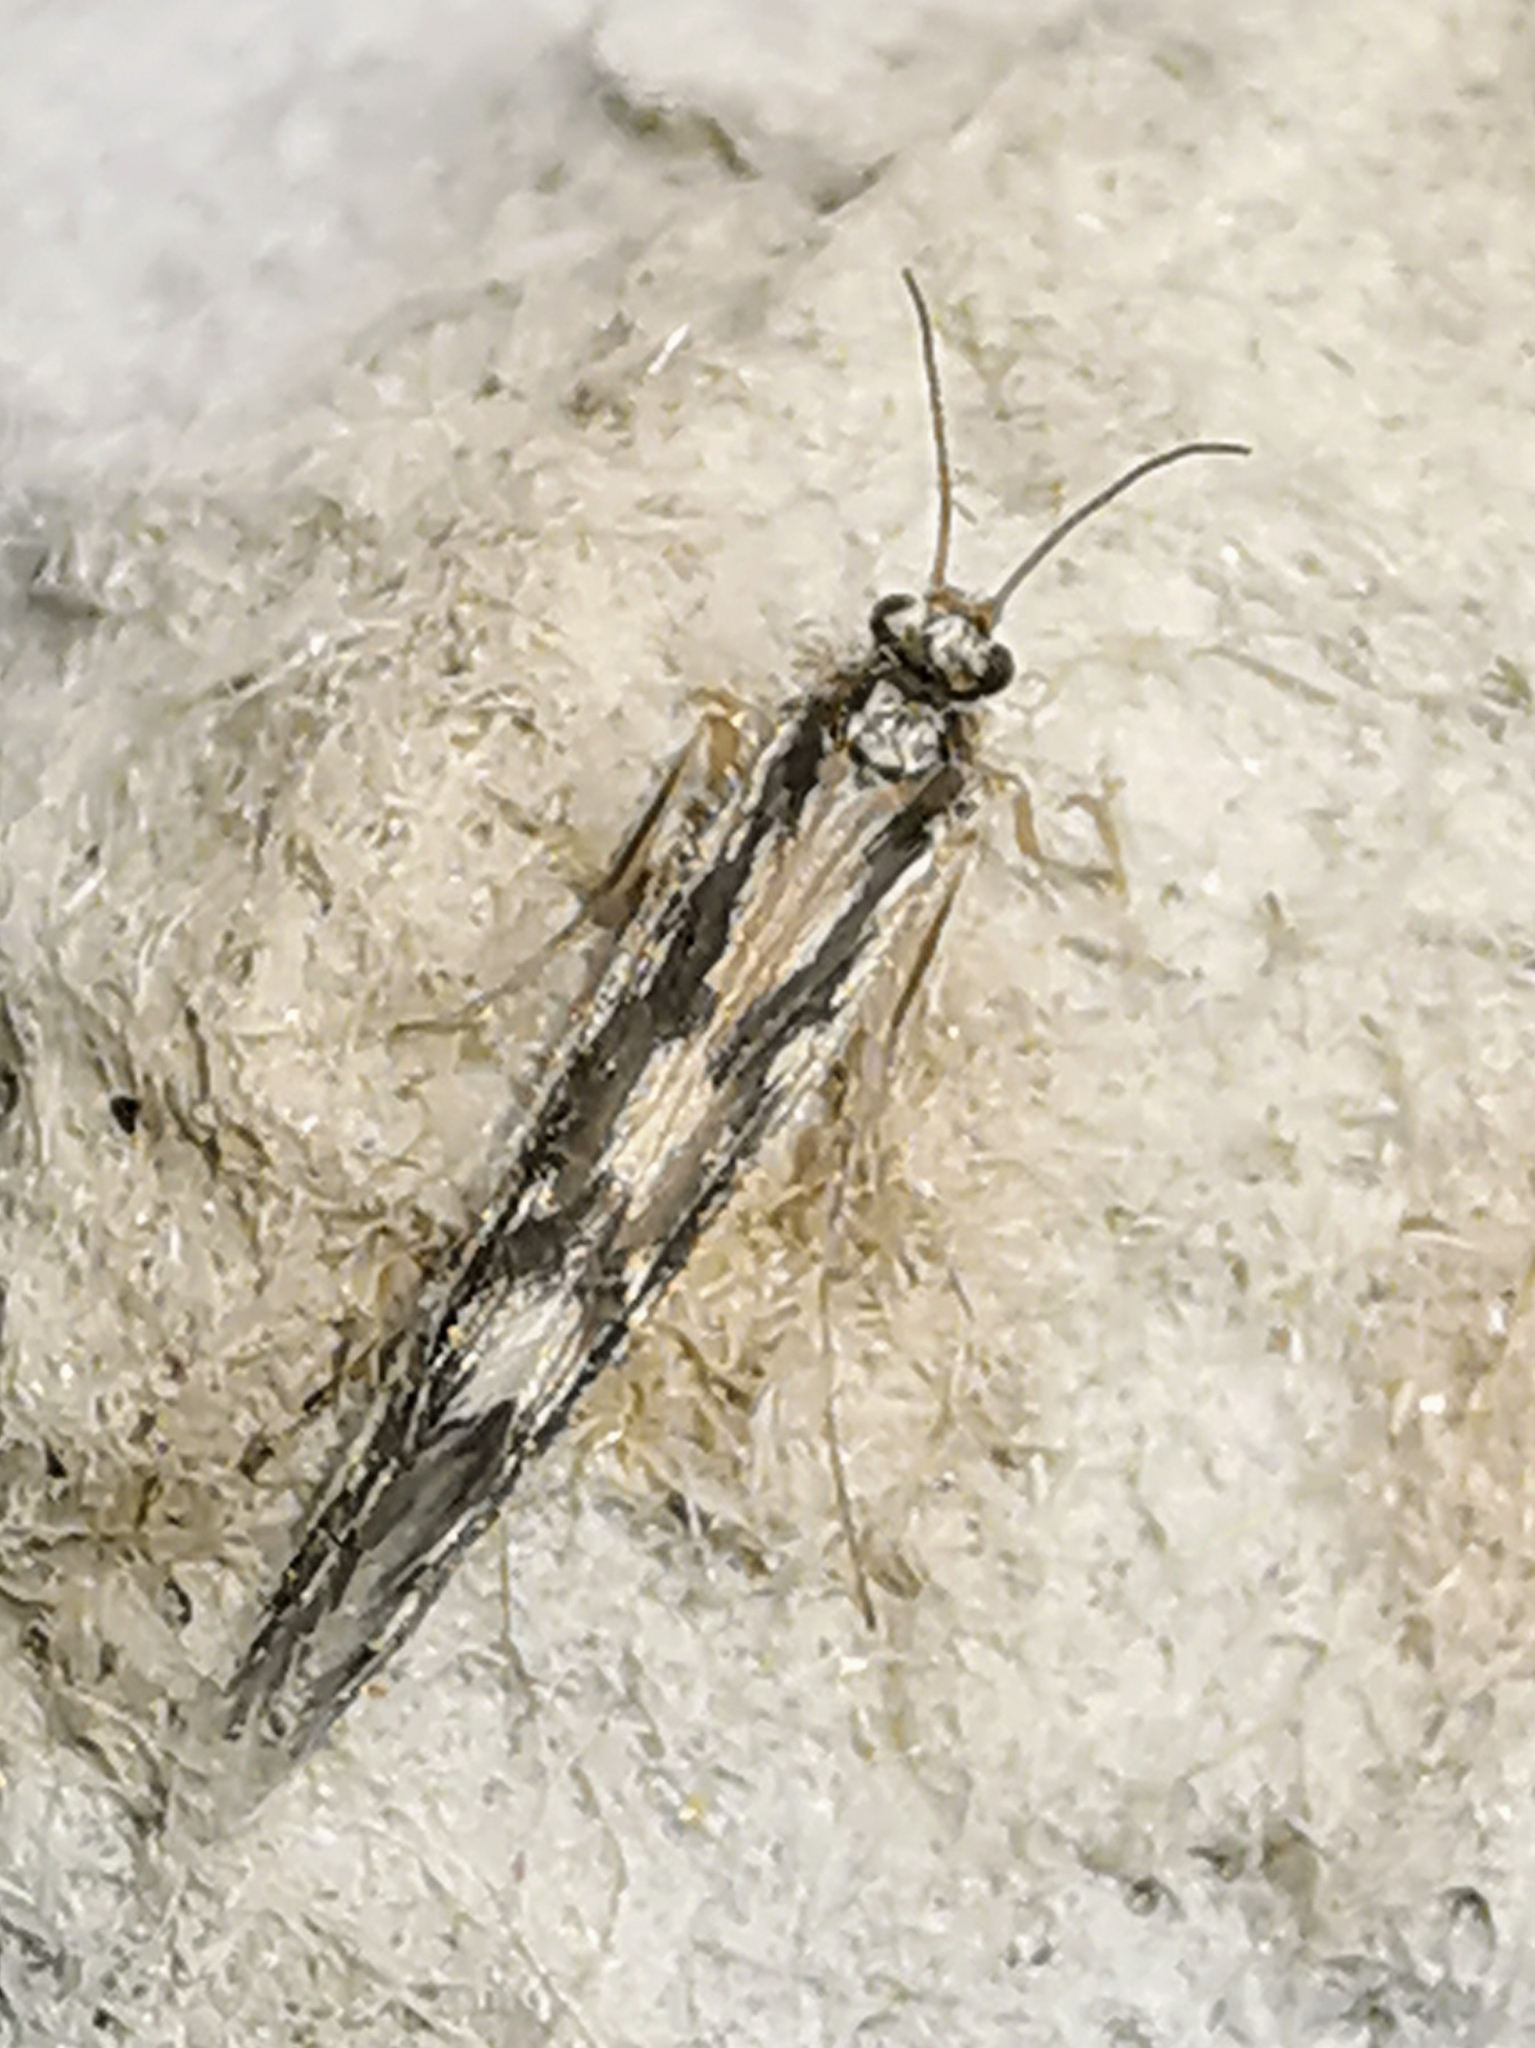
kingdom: Animalia
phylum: Arthropoda
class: Insecta
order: Trichoptera
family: Hydroptilidae
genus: Agraylea
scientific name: Agraylea multipunctata
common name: Salt and pepper microcaddisfly
